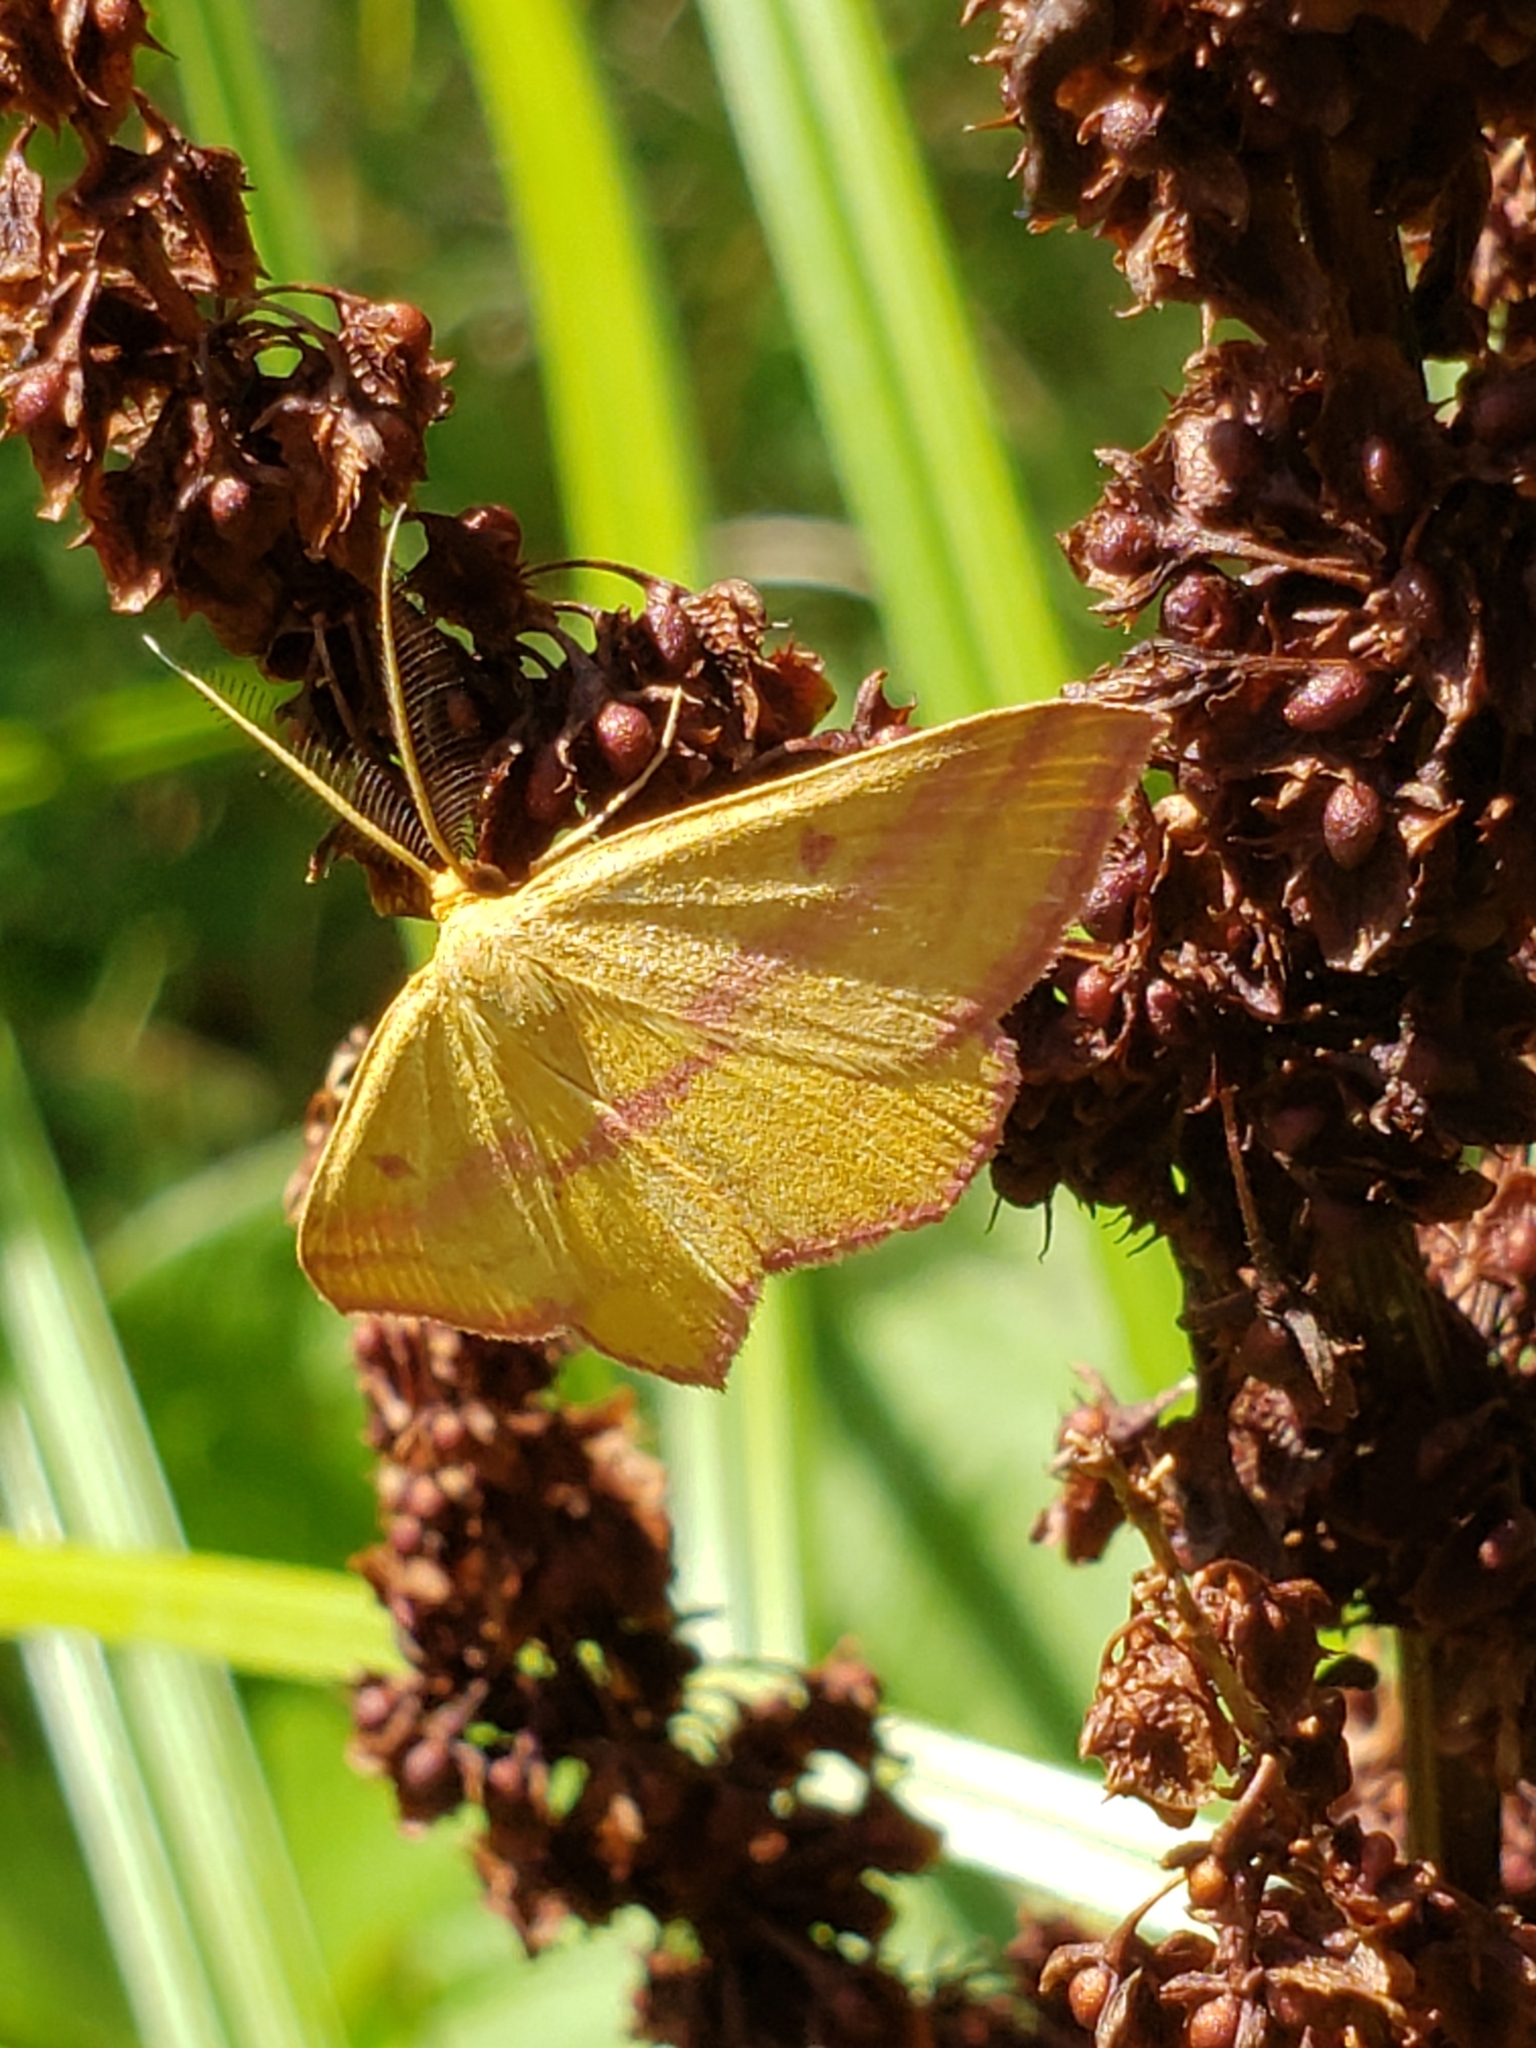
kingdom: Animalia
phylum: Arthropoda
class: Insecta
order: Lepidoptera
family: Geometridae
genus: Haematopis
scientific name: Haematopis grataria
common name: Chickweed geometer
